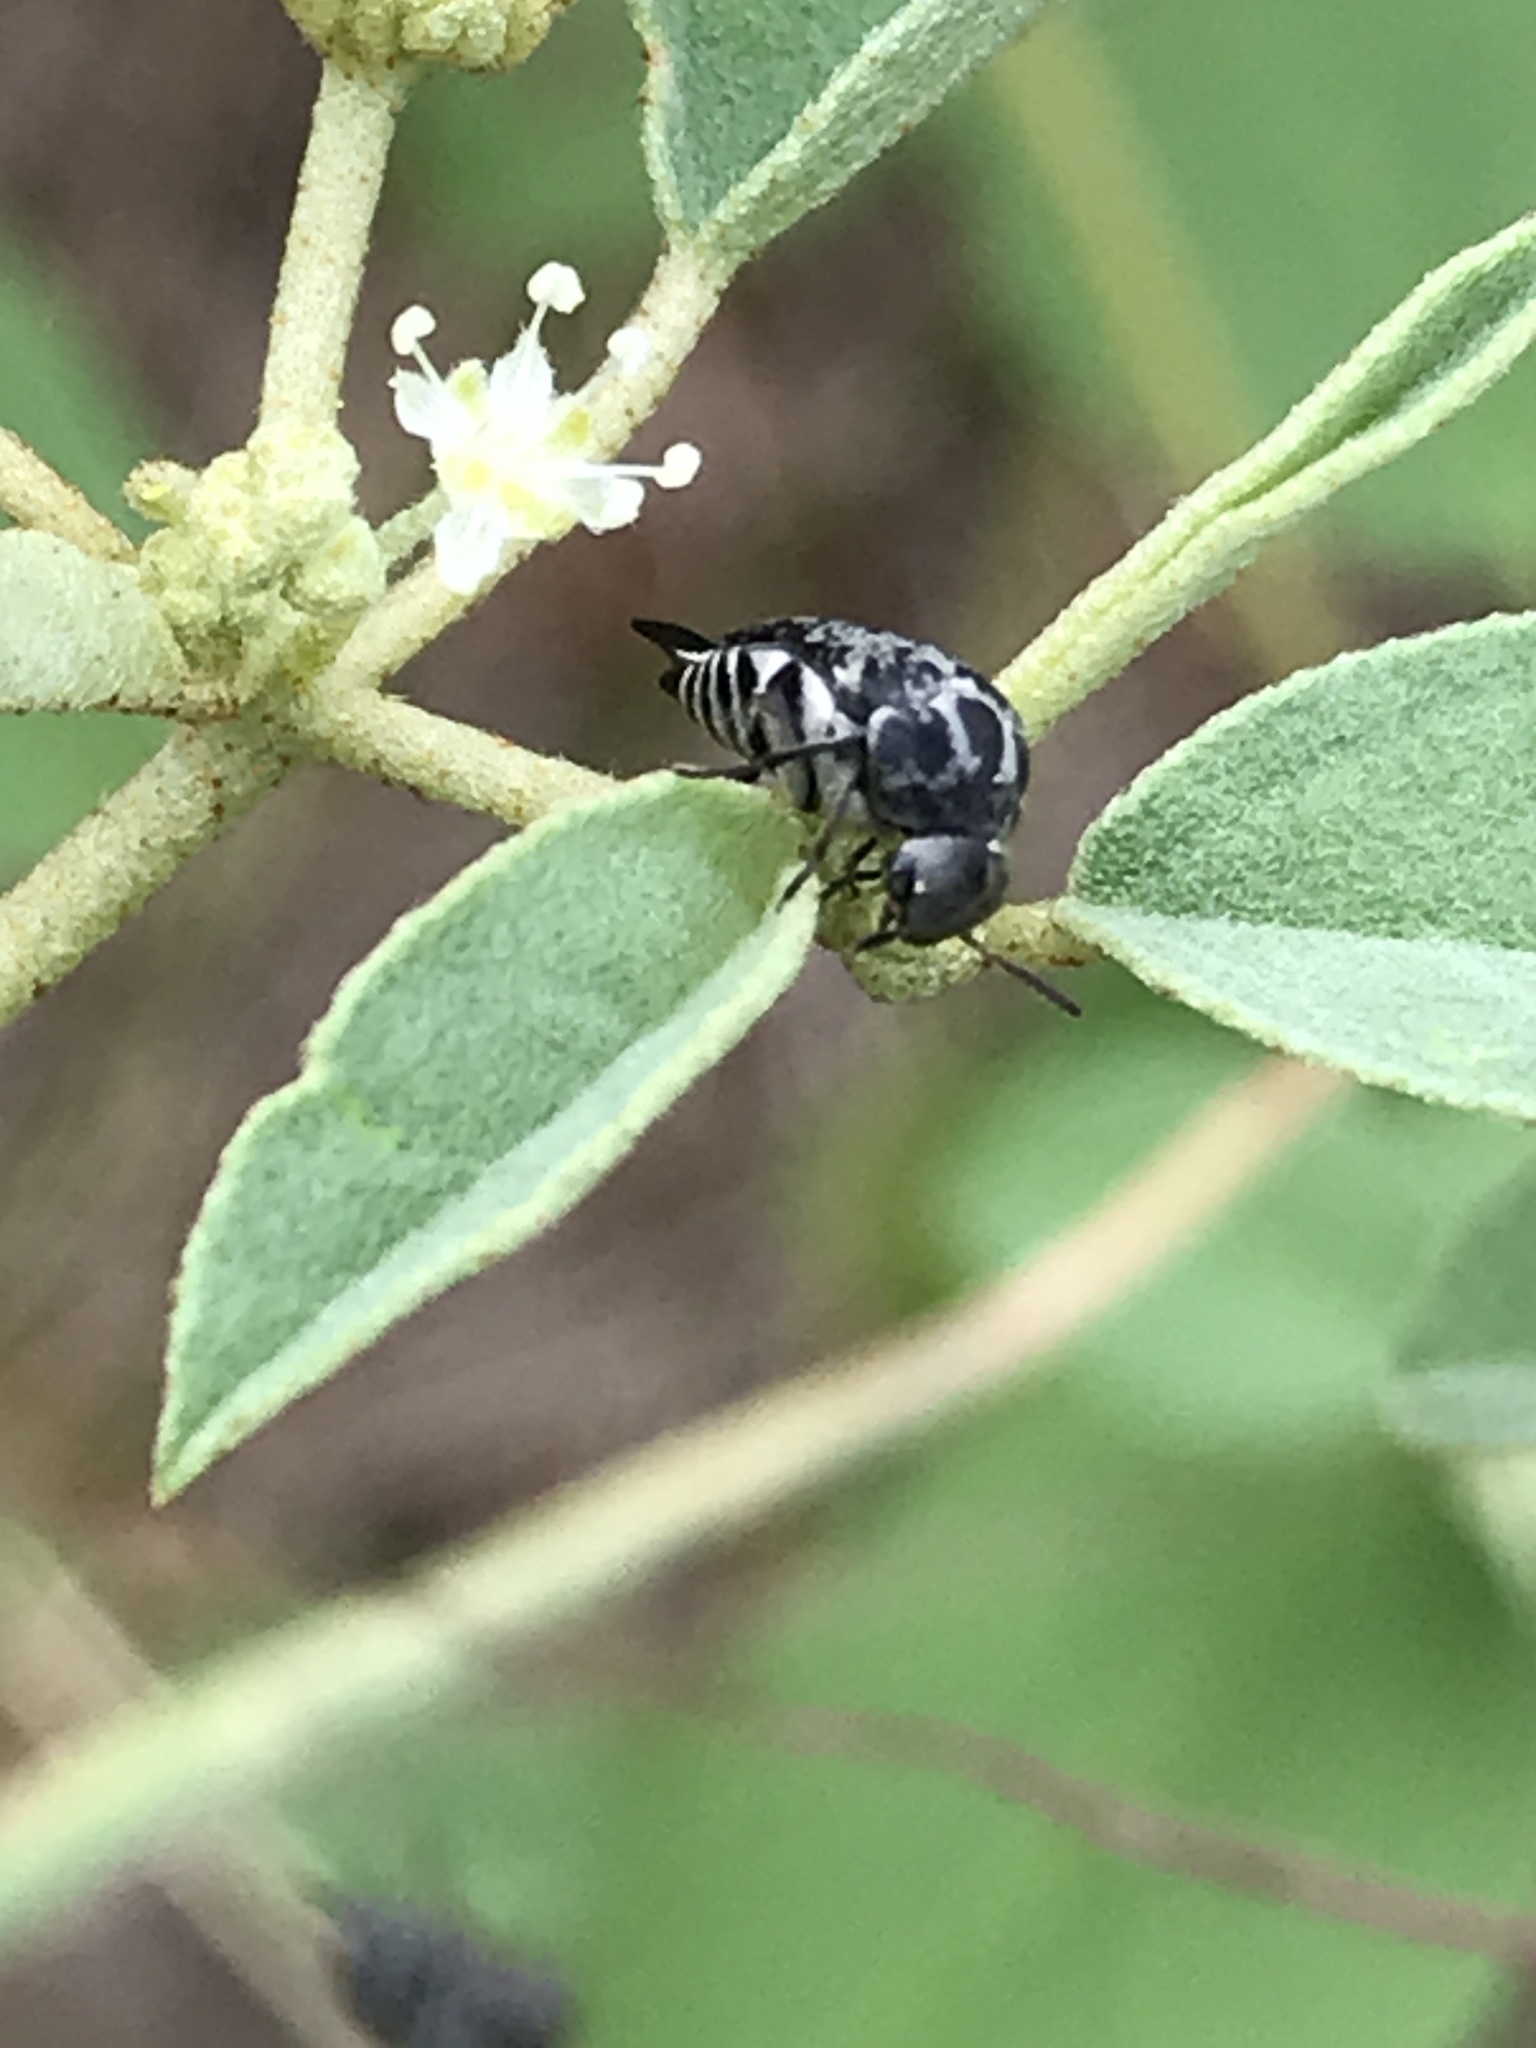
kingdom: Animalia
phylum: Arthropoda
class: Insecta
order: Coleoptera
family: Mordellidae
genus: Mordella
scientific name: Mordella marginata
